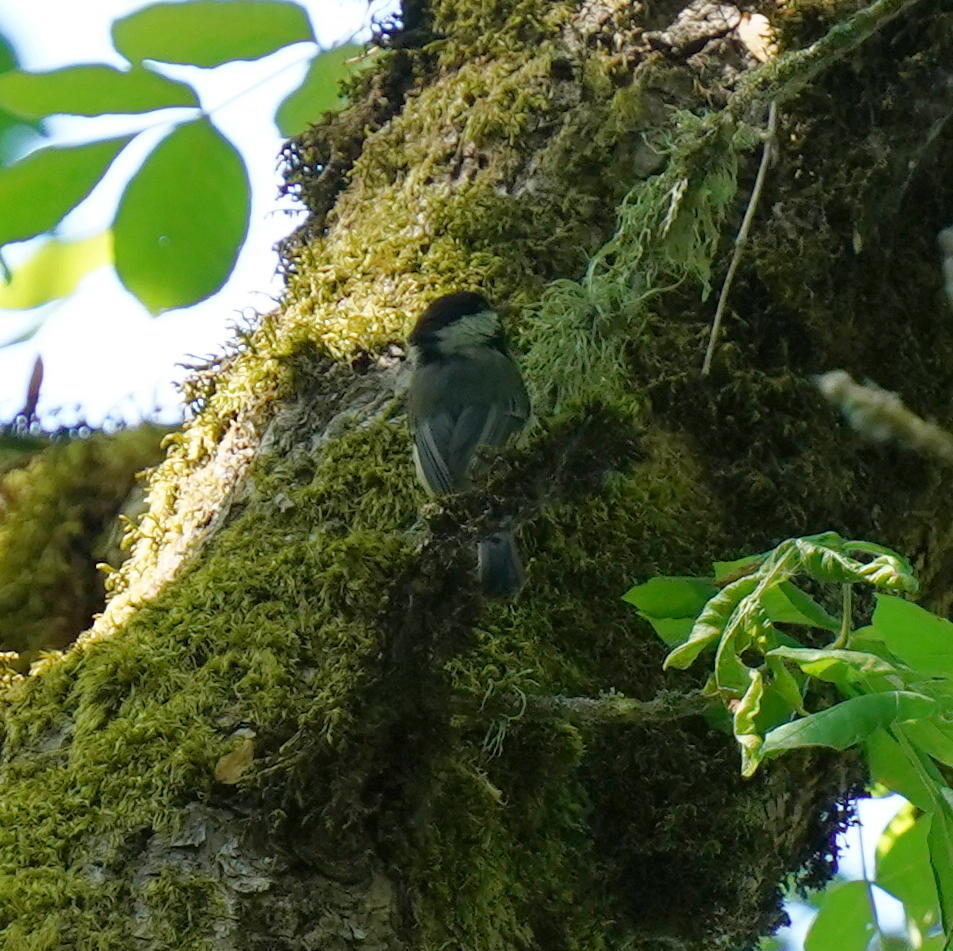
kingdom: Animalia
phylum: Chordata
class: Aves
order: Passeriformes
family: Paridae
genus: Poecile
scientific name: Poecile atricapillus
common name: Black-capped chickadee
